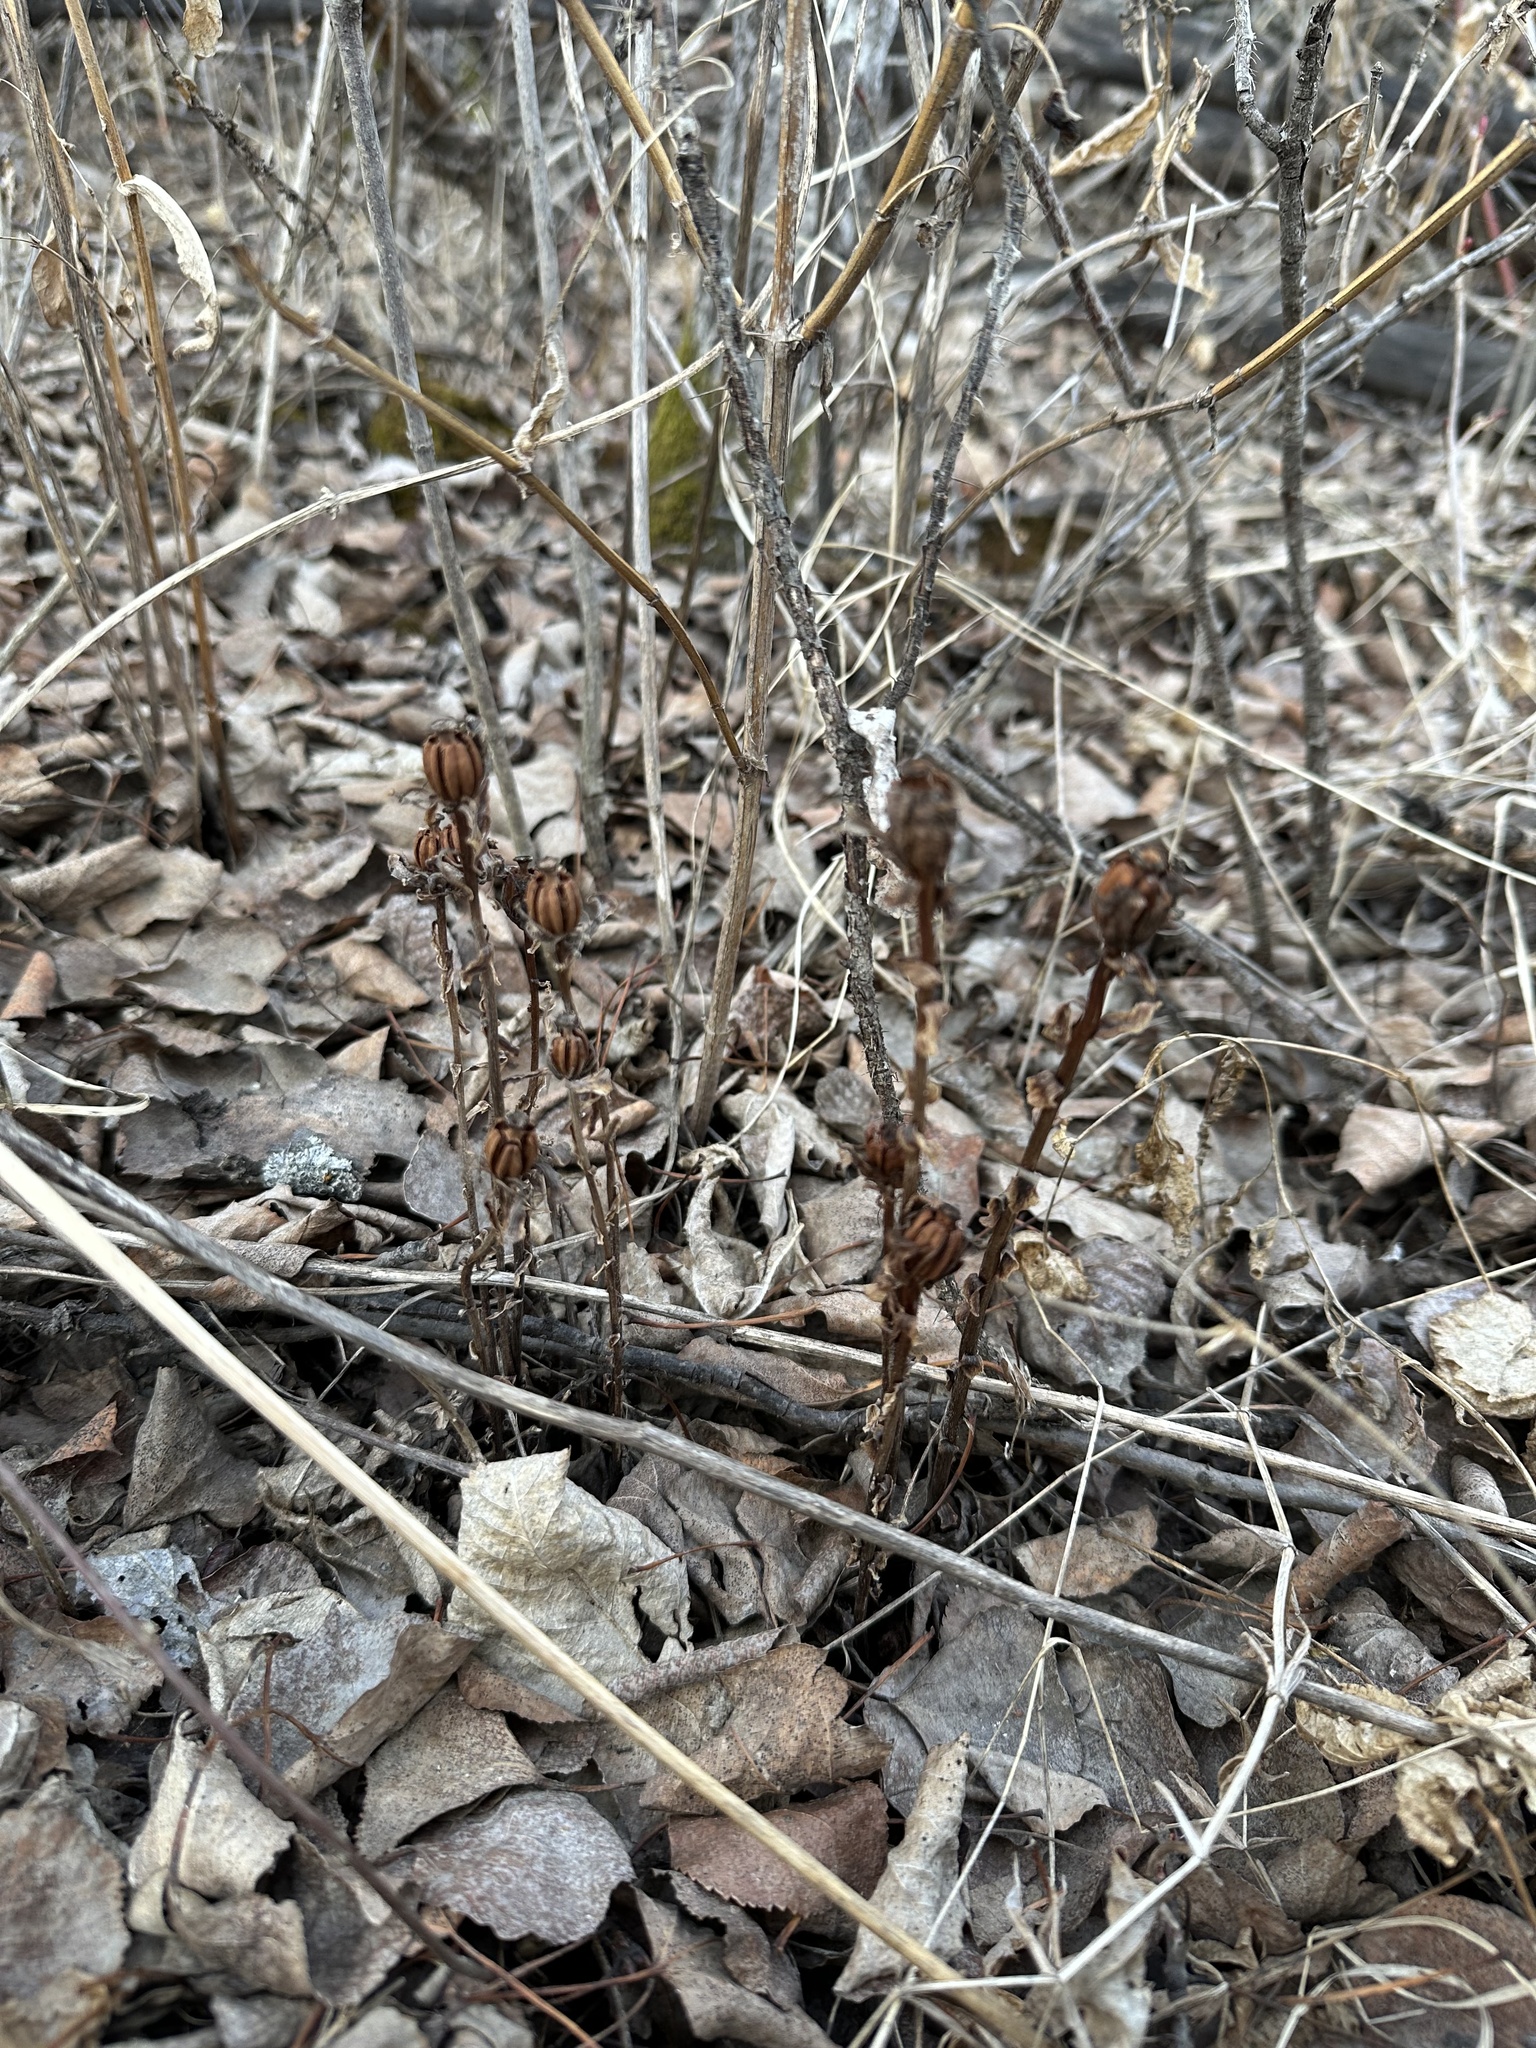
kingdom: Plantae
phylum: Tracheophyta
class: Magnoliopsida
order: Ericales
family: Ericaceae
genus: Monotropa
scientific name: Monotropa uniflora
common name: Convulsion root
